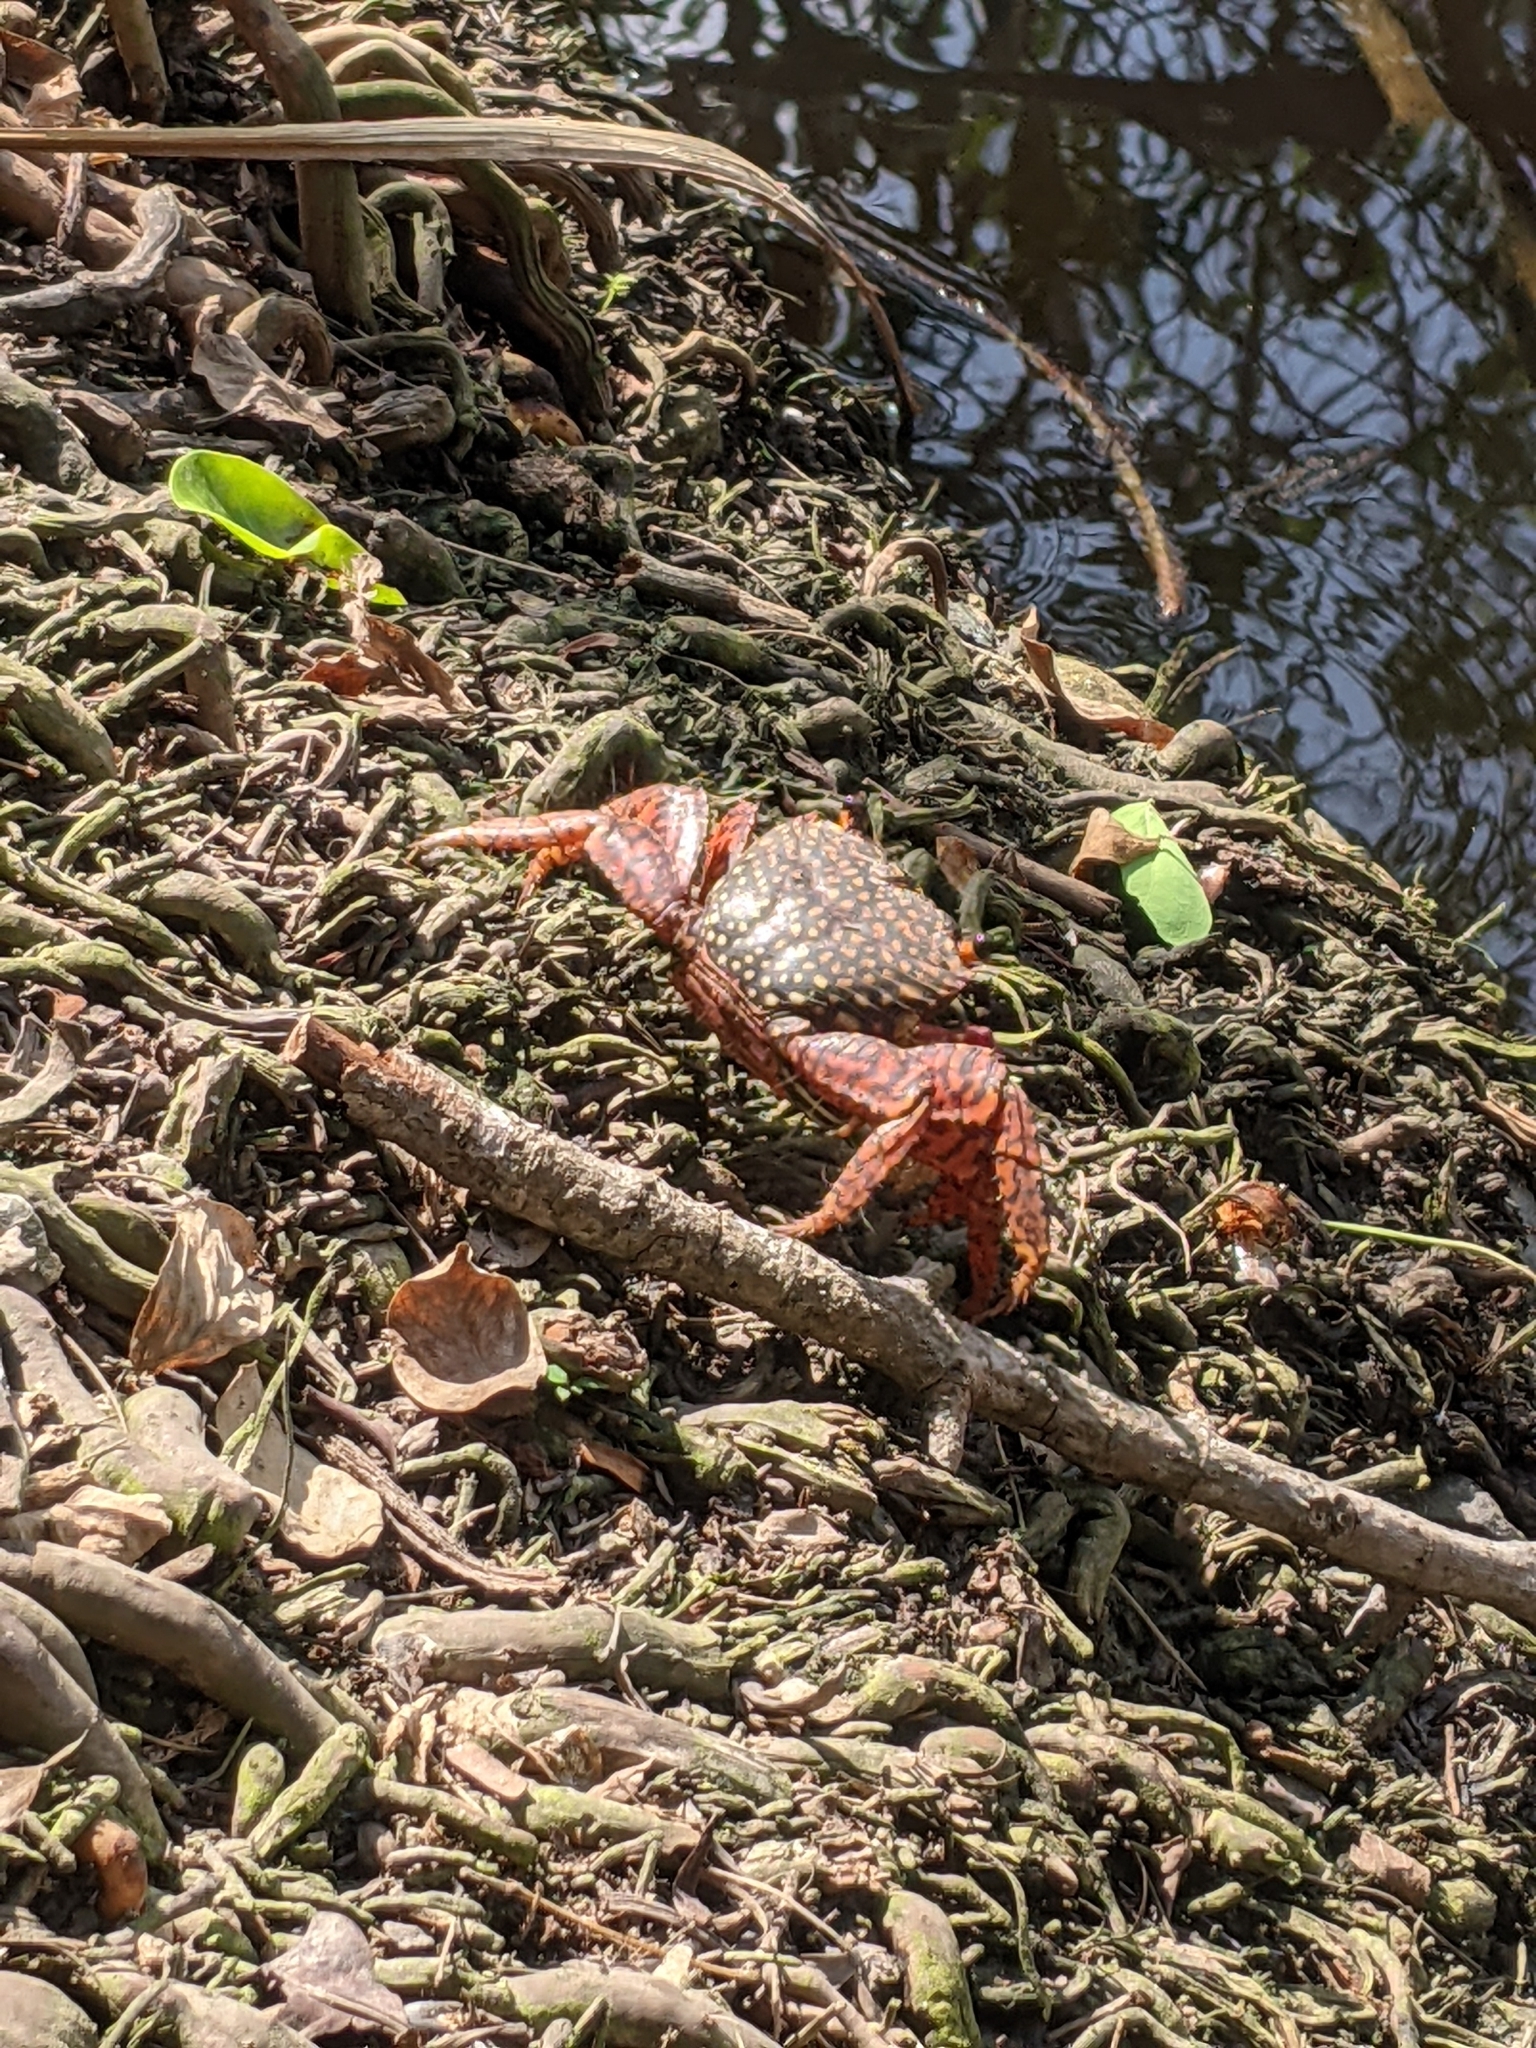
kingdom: Animalia
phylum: Arthropoda
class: Malacostraca
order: Decapoda
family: Grapsidae
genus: Goniopsis
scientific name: Goniopsis pulchra
